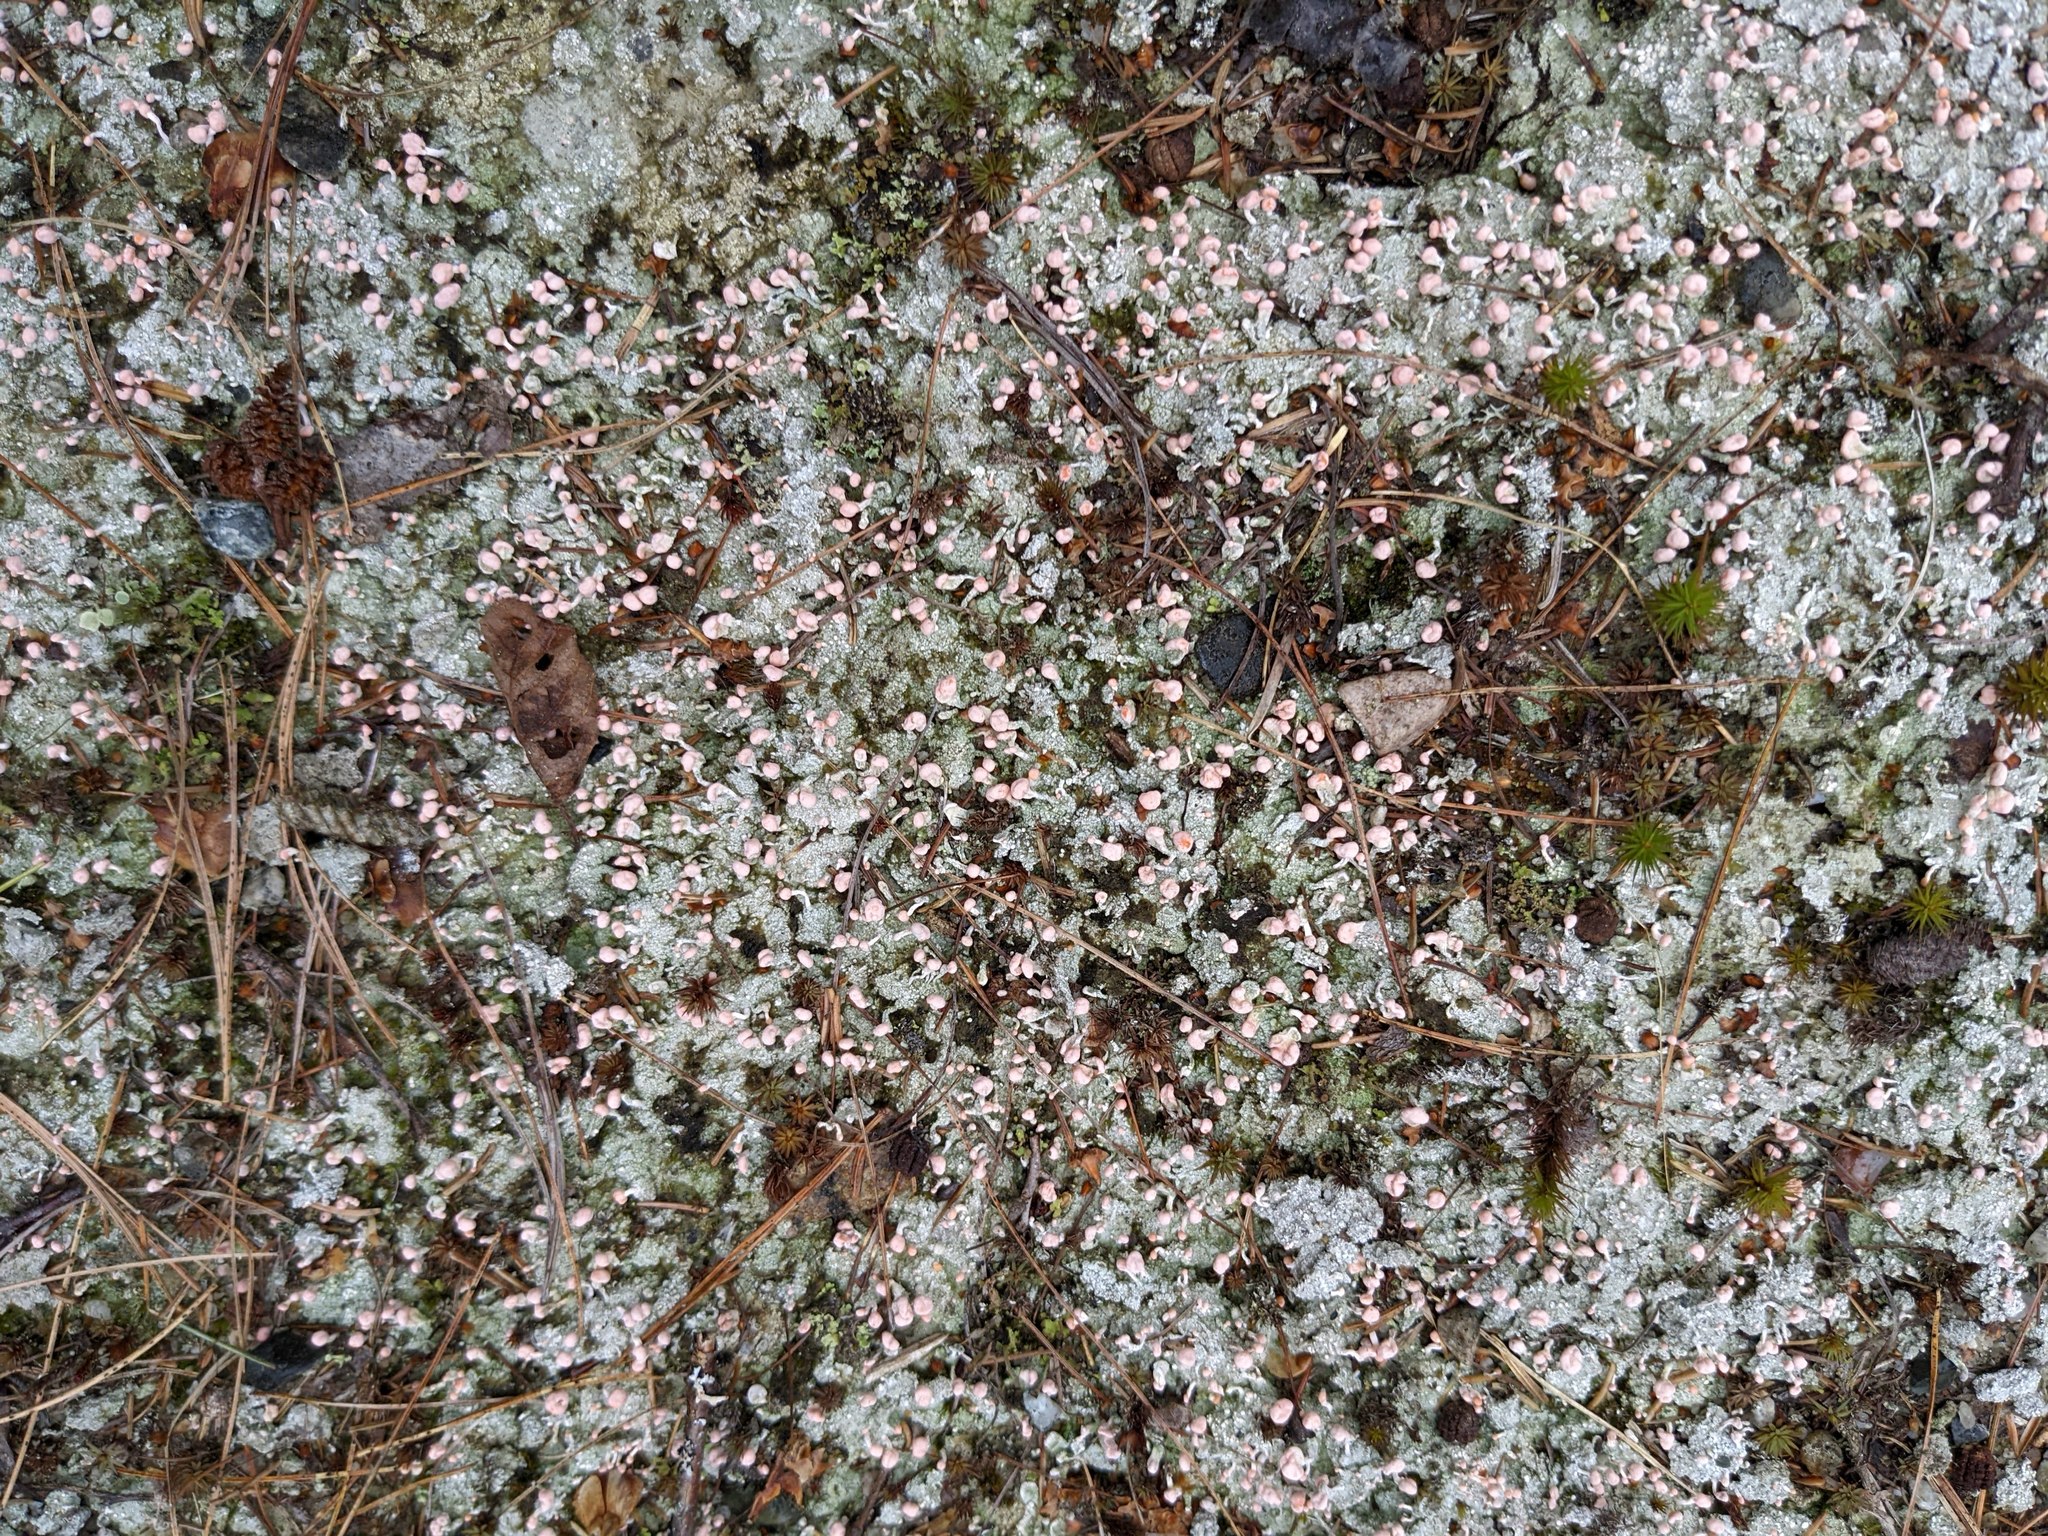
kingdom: Fungi
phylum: Ascomycota
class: Lecanoromycetes
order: Pertusariales
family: Icmadophilaceae
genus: Dibaeis
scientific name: Dibaeis baeomyces
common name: Pink earth lichen
